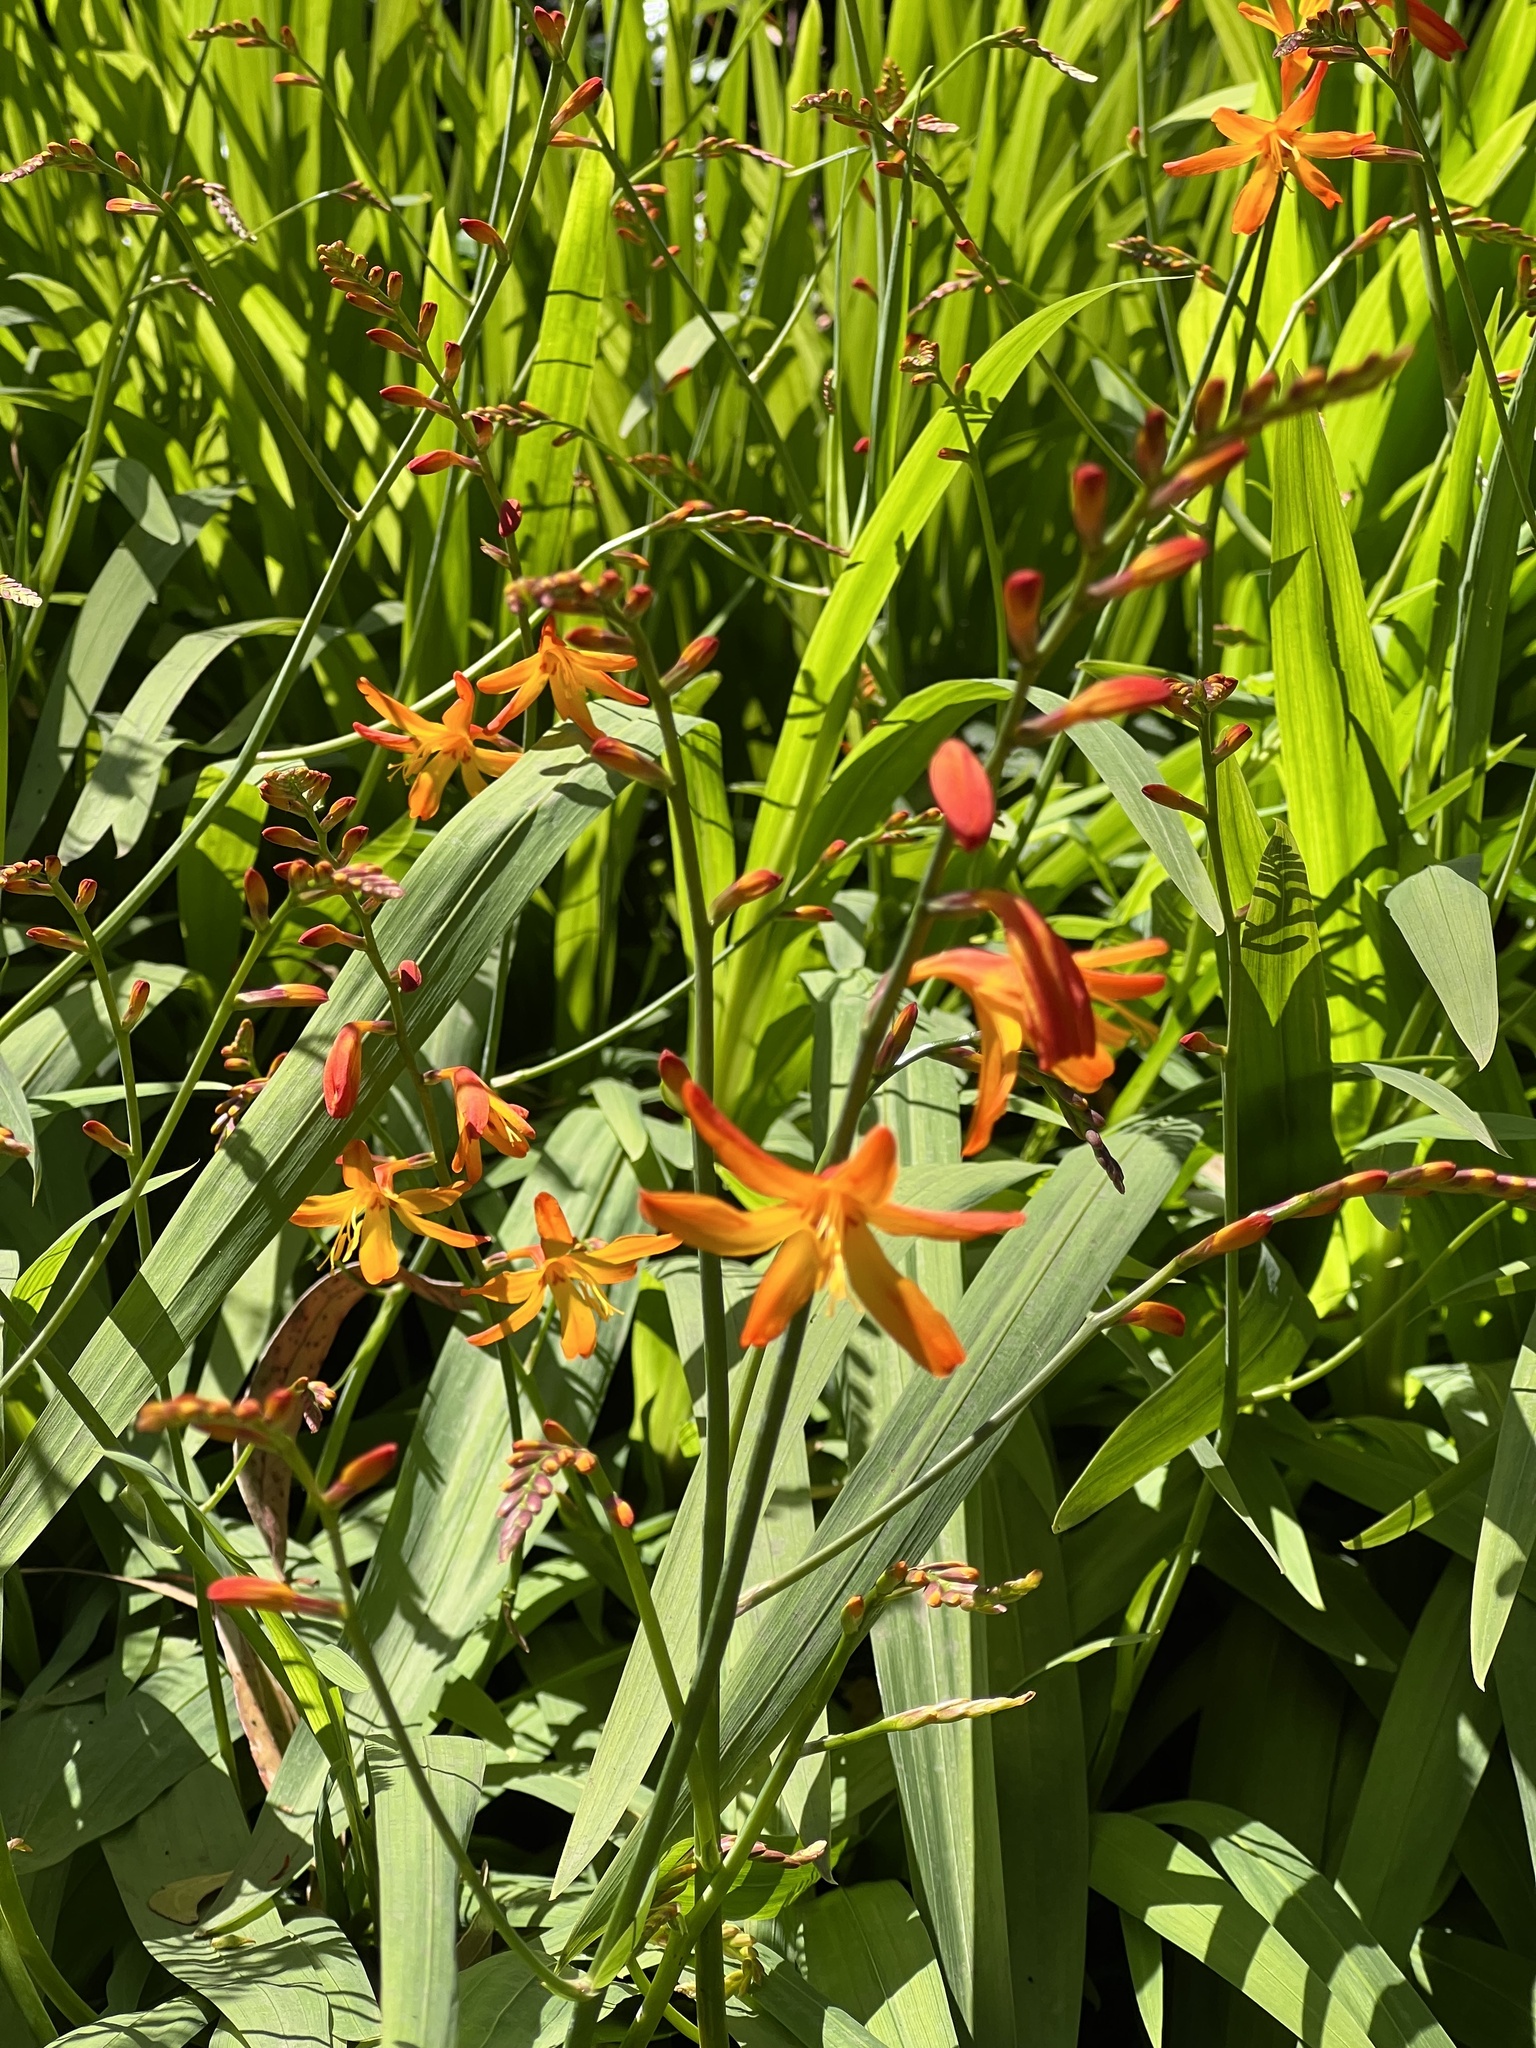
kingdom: Plantae
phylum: Tracheophyta
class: Liliopsida
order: Asparagales
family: Iridaceae
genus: Crocosmia
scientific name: Crocosmia crocosmiiflora
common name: Montbretia
